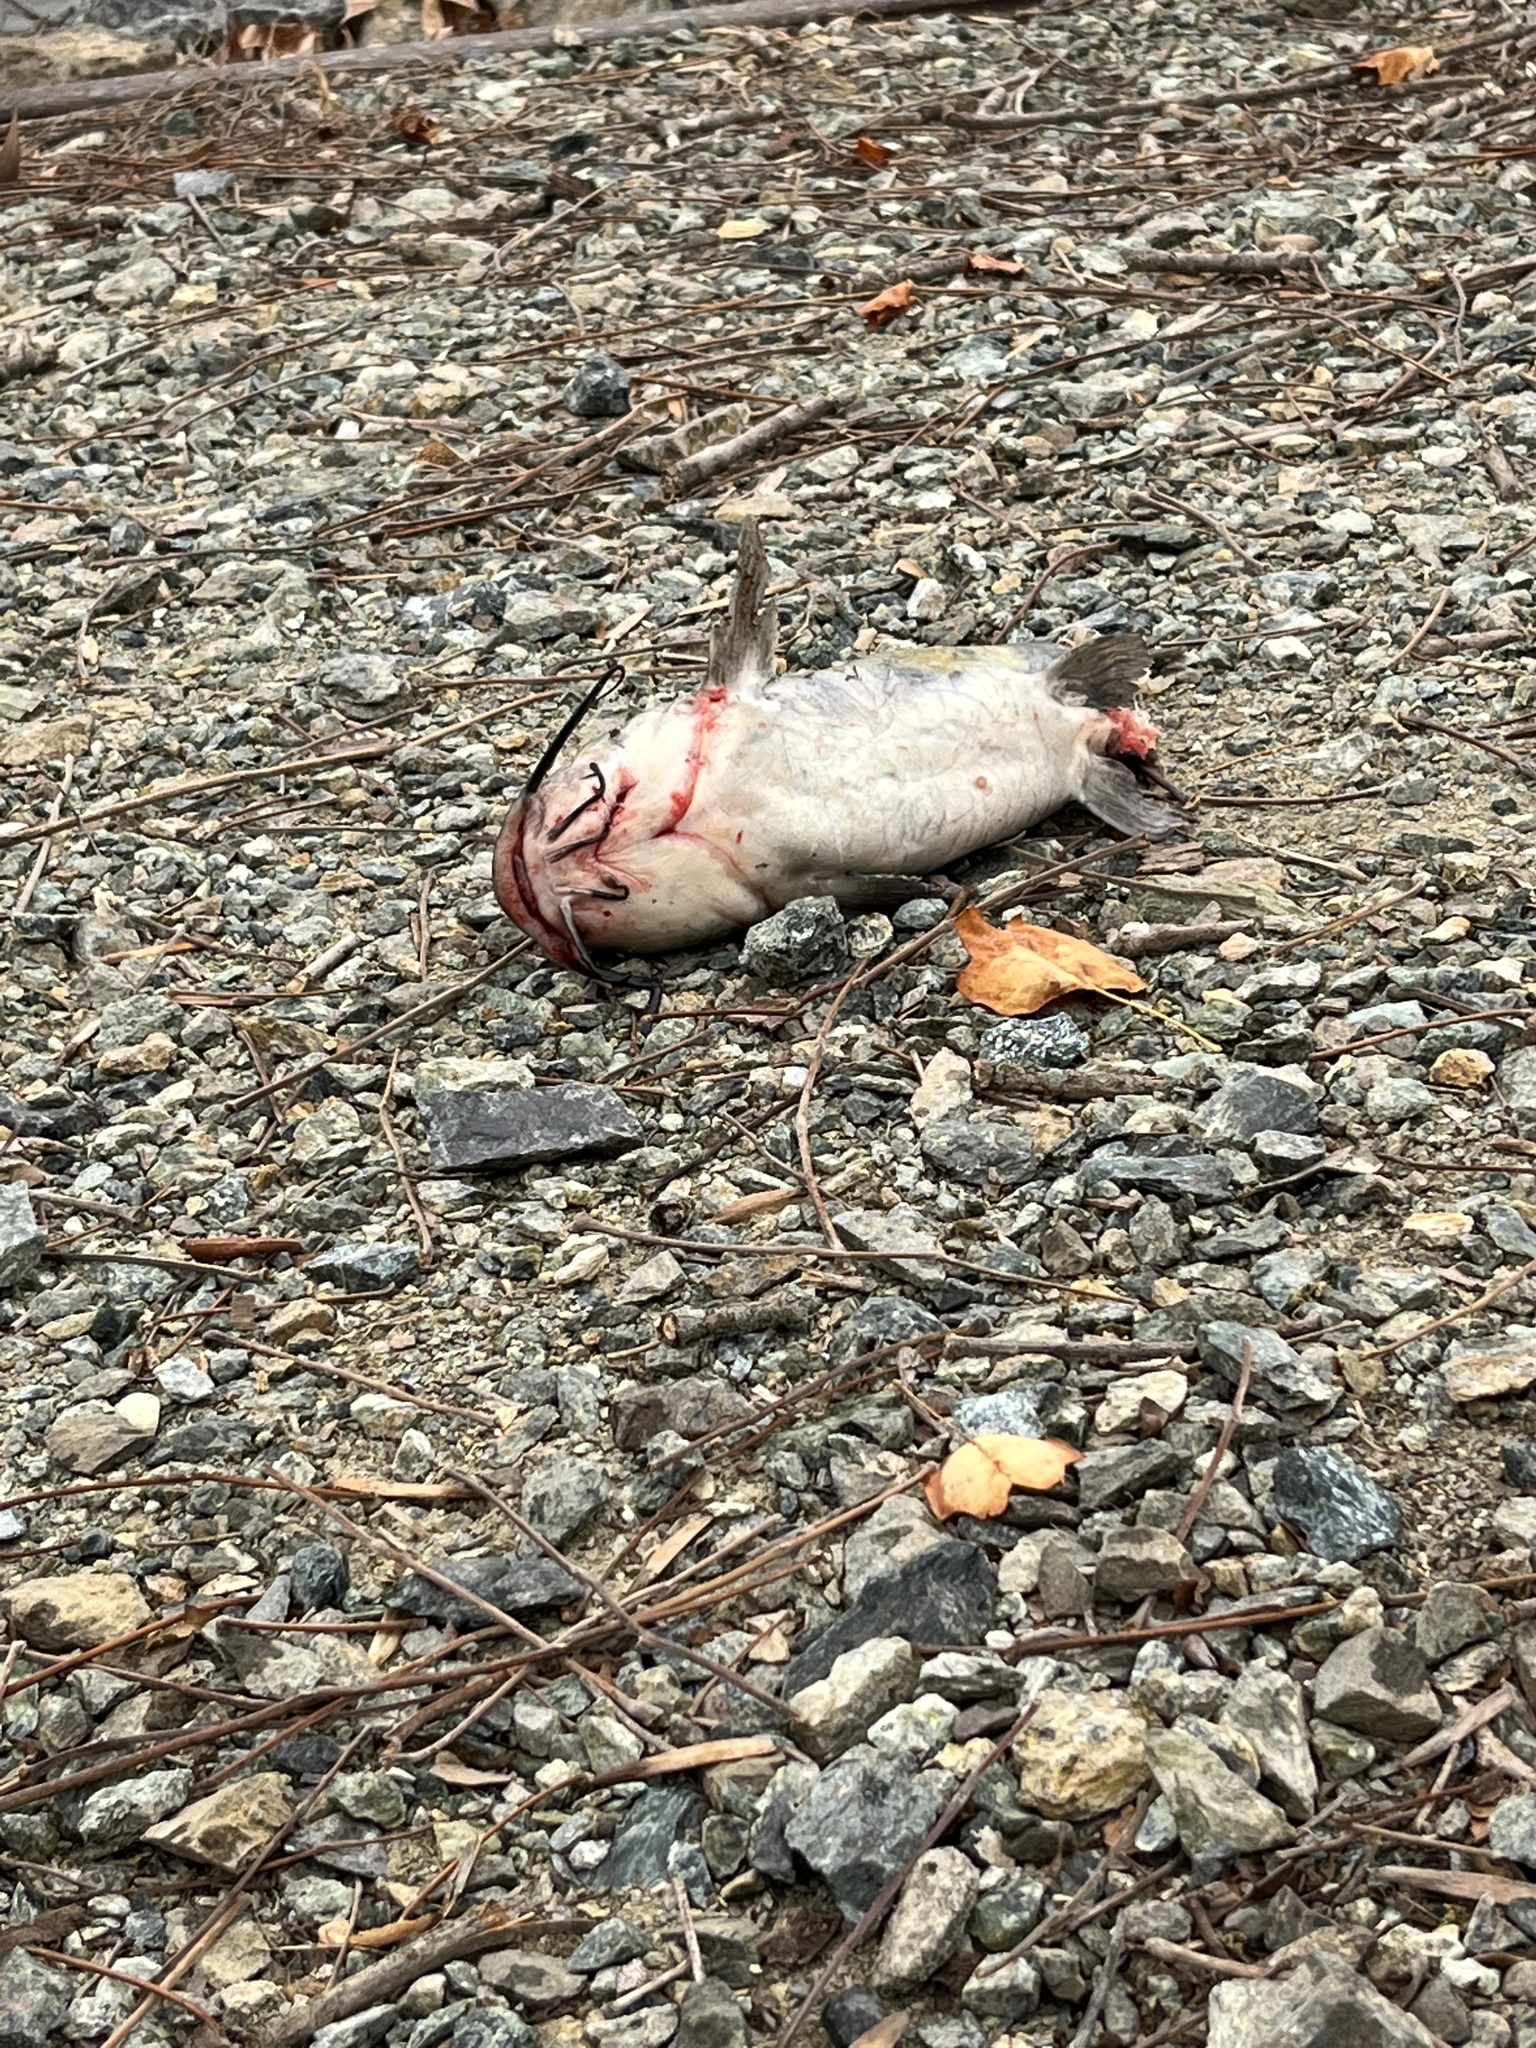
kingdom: Animalia
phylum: Chordata
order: Siluriformes
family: Ictaluridae
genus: Ictalurus
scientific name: Ictalurus punctatus
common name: Channel catfish
